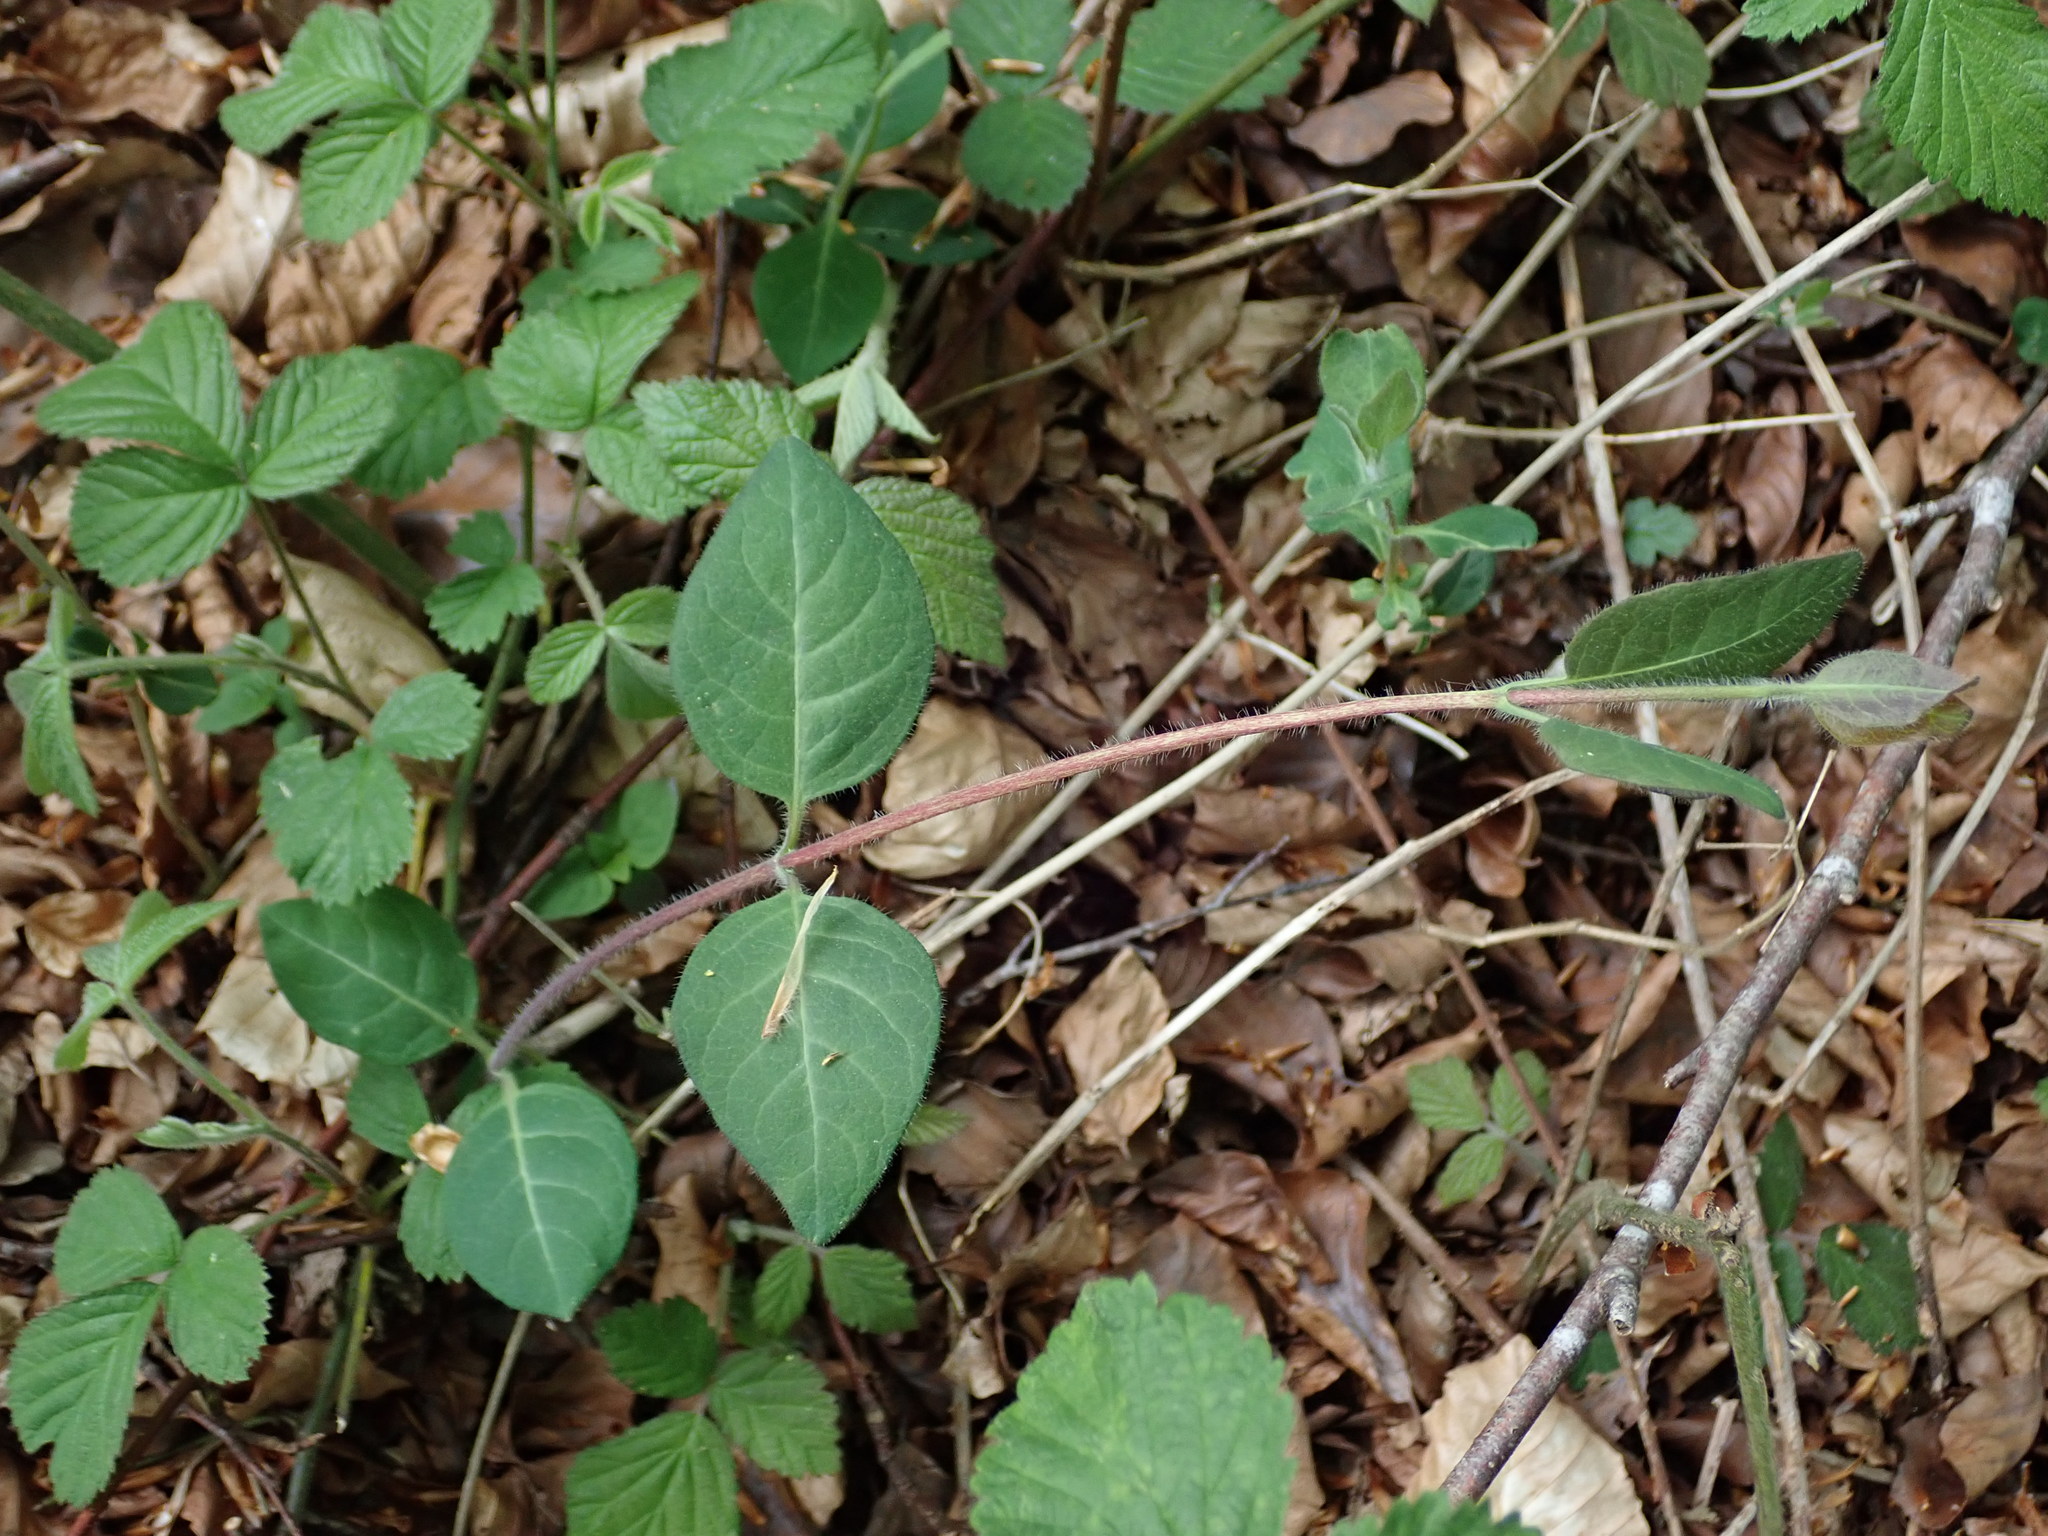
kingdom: Plantae
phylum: Tracheophyta
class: Magnoliopsida
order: Dipsacales
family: Caprifoliaceae
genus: Lonicera
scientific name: Lonicera periclymenum
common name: European honeysuckle
